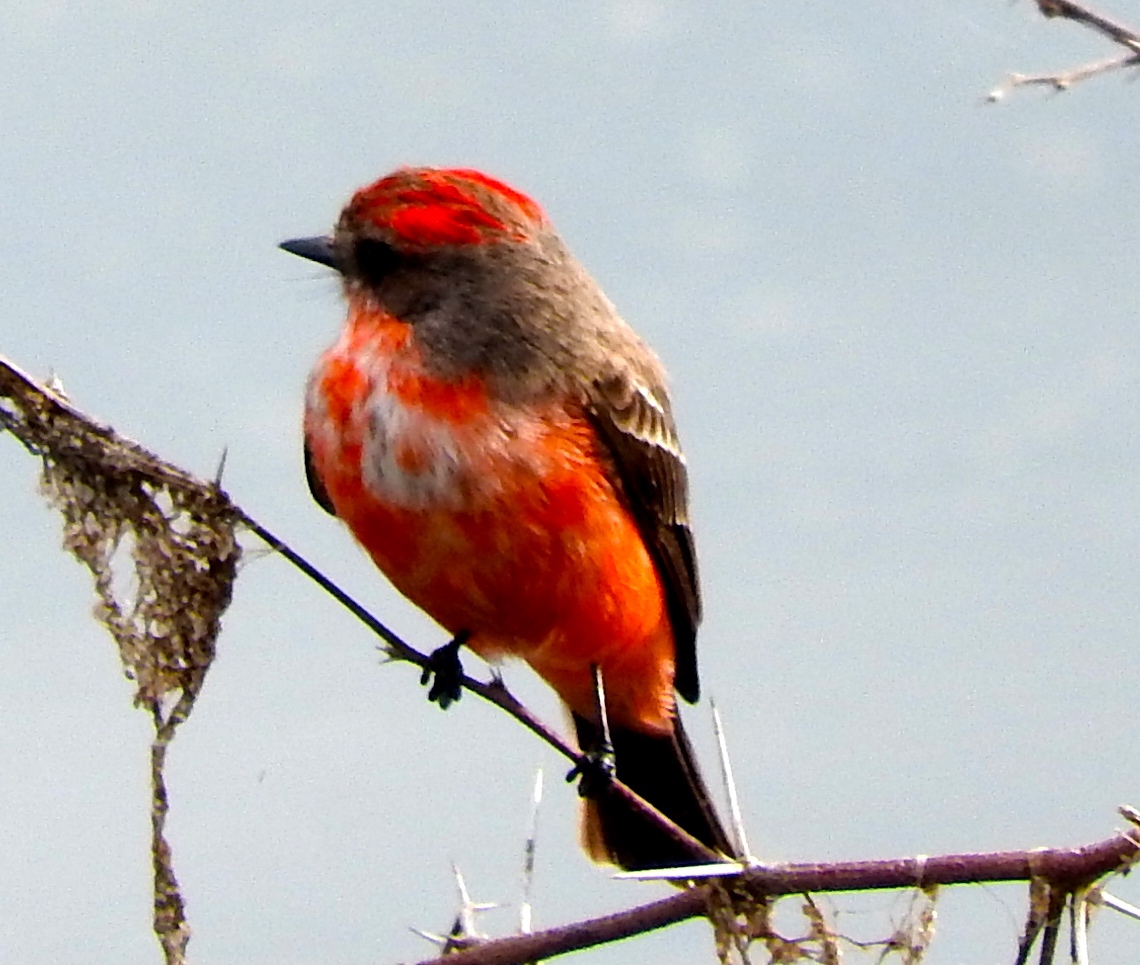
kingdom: Animalia
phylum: Chordata
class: Aves
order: Passeriformes
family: Tyrannidae
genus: Pyrocephalus
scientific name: Pyrocephalus rubinus
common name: Vermilion flycatcher
